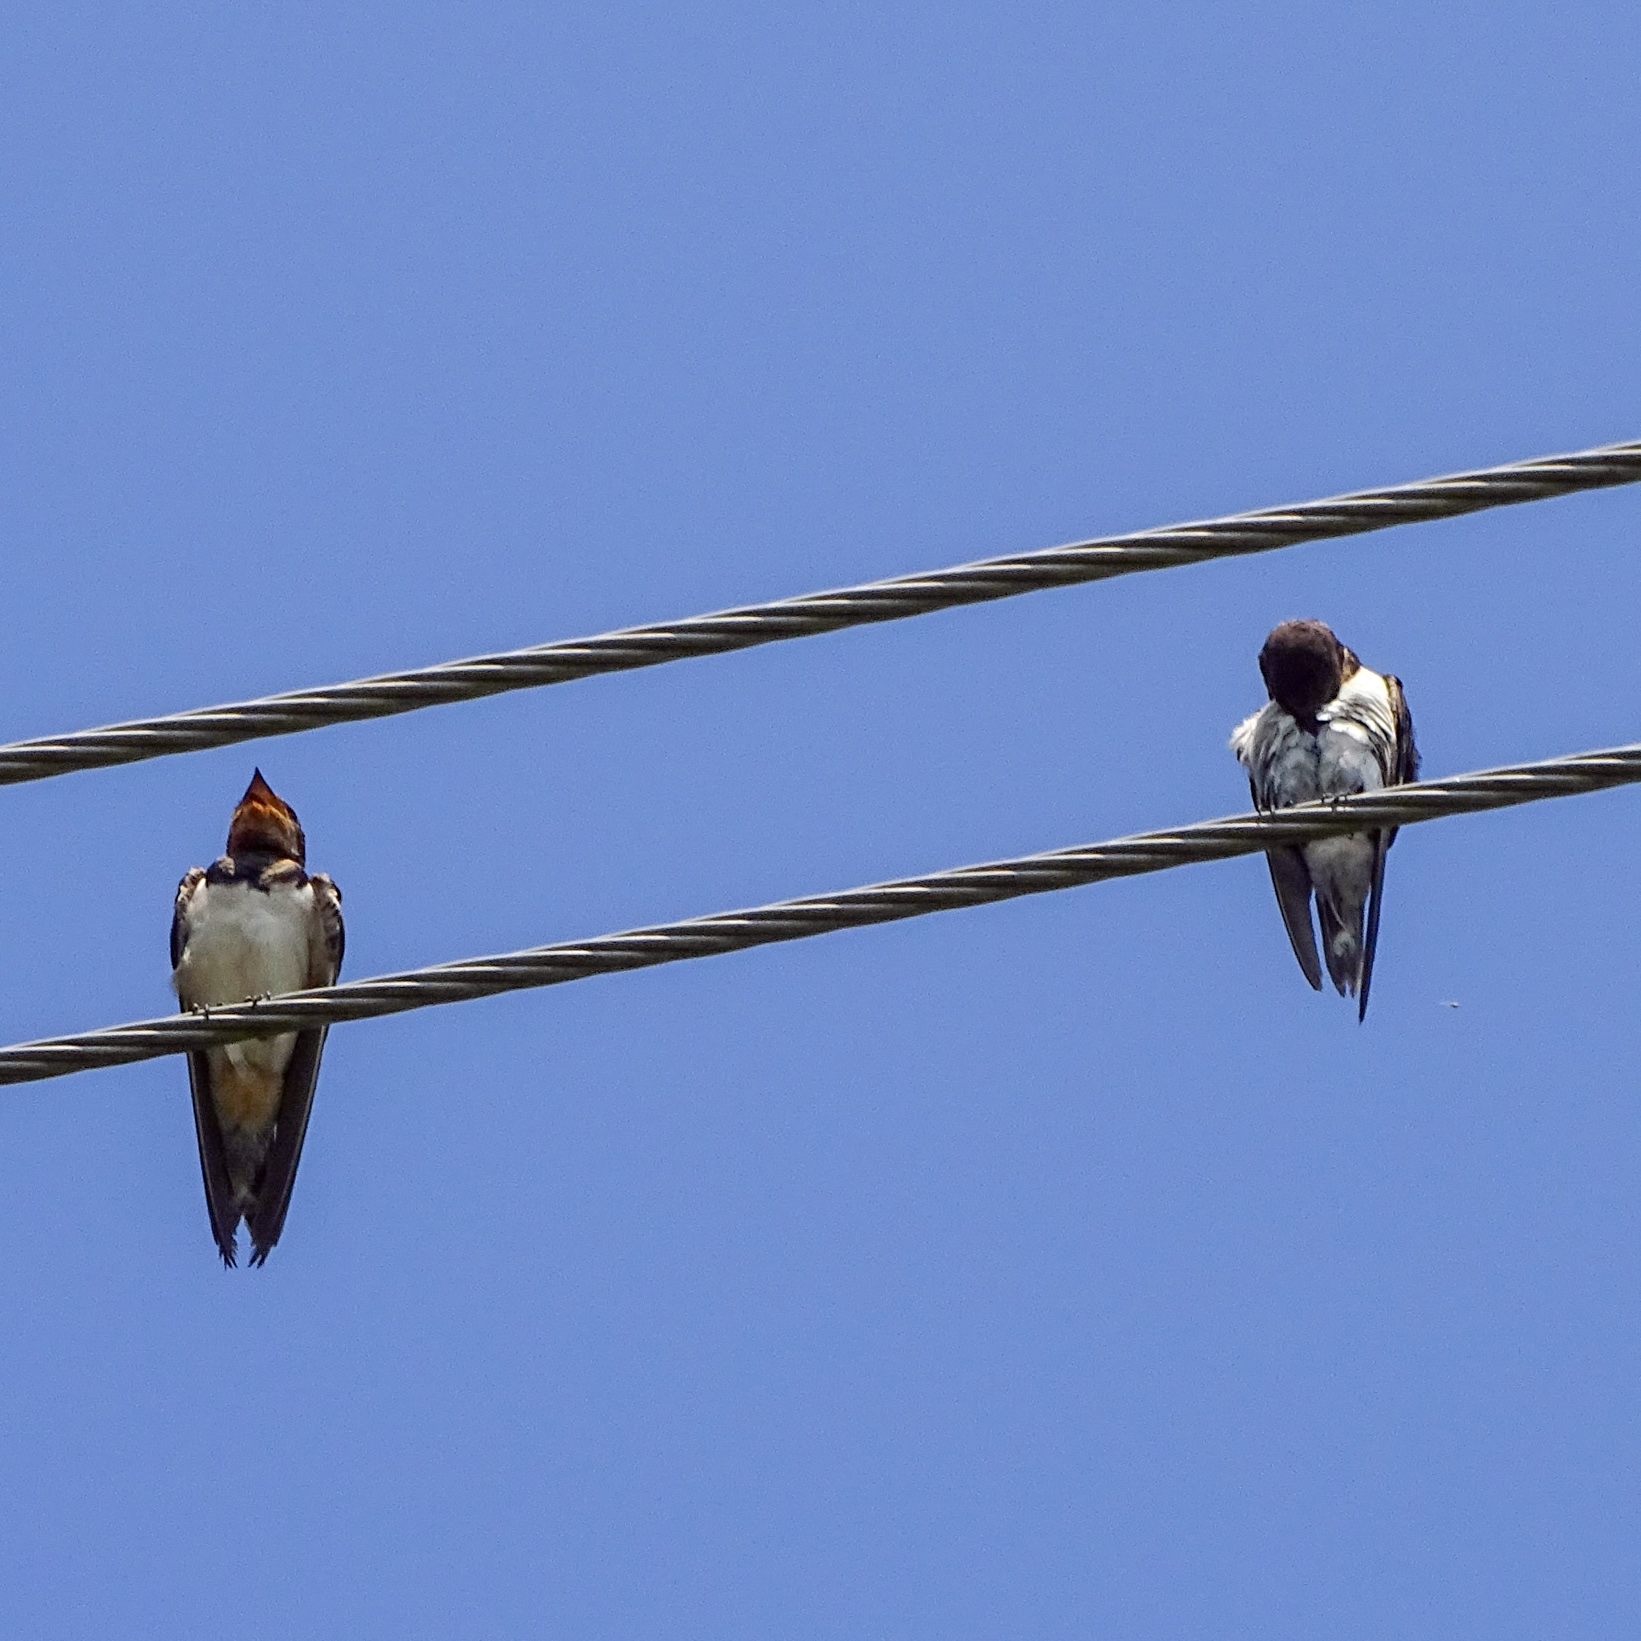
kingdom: Animalia
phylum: Chordata
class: Aves
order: Passeriformes
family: Hirundinidae
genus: Hirundo
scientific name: Hirundo rustica
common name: Barn swallow
